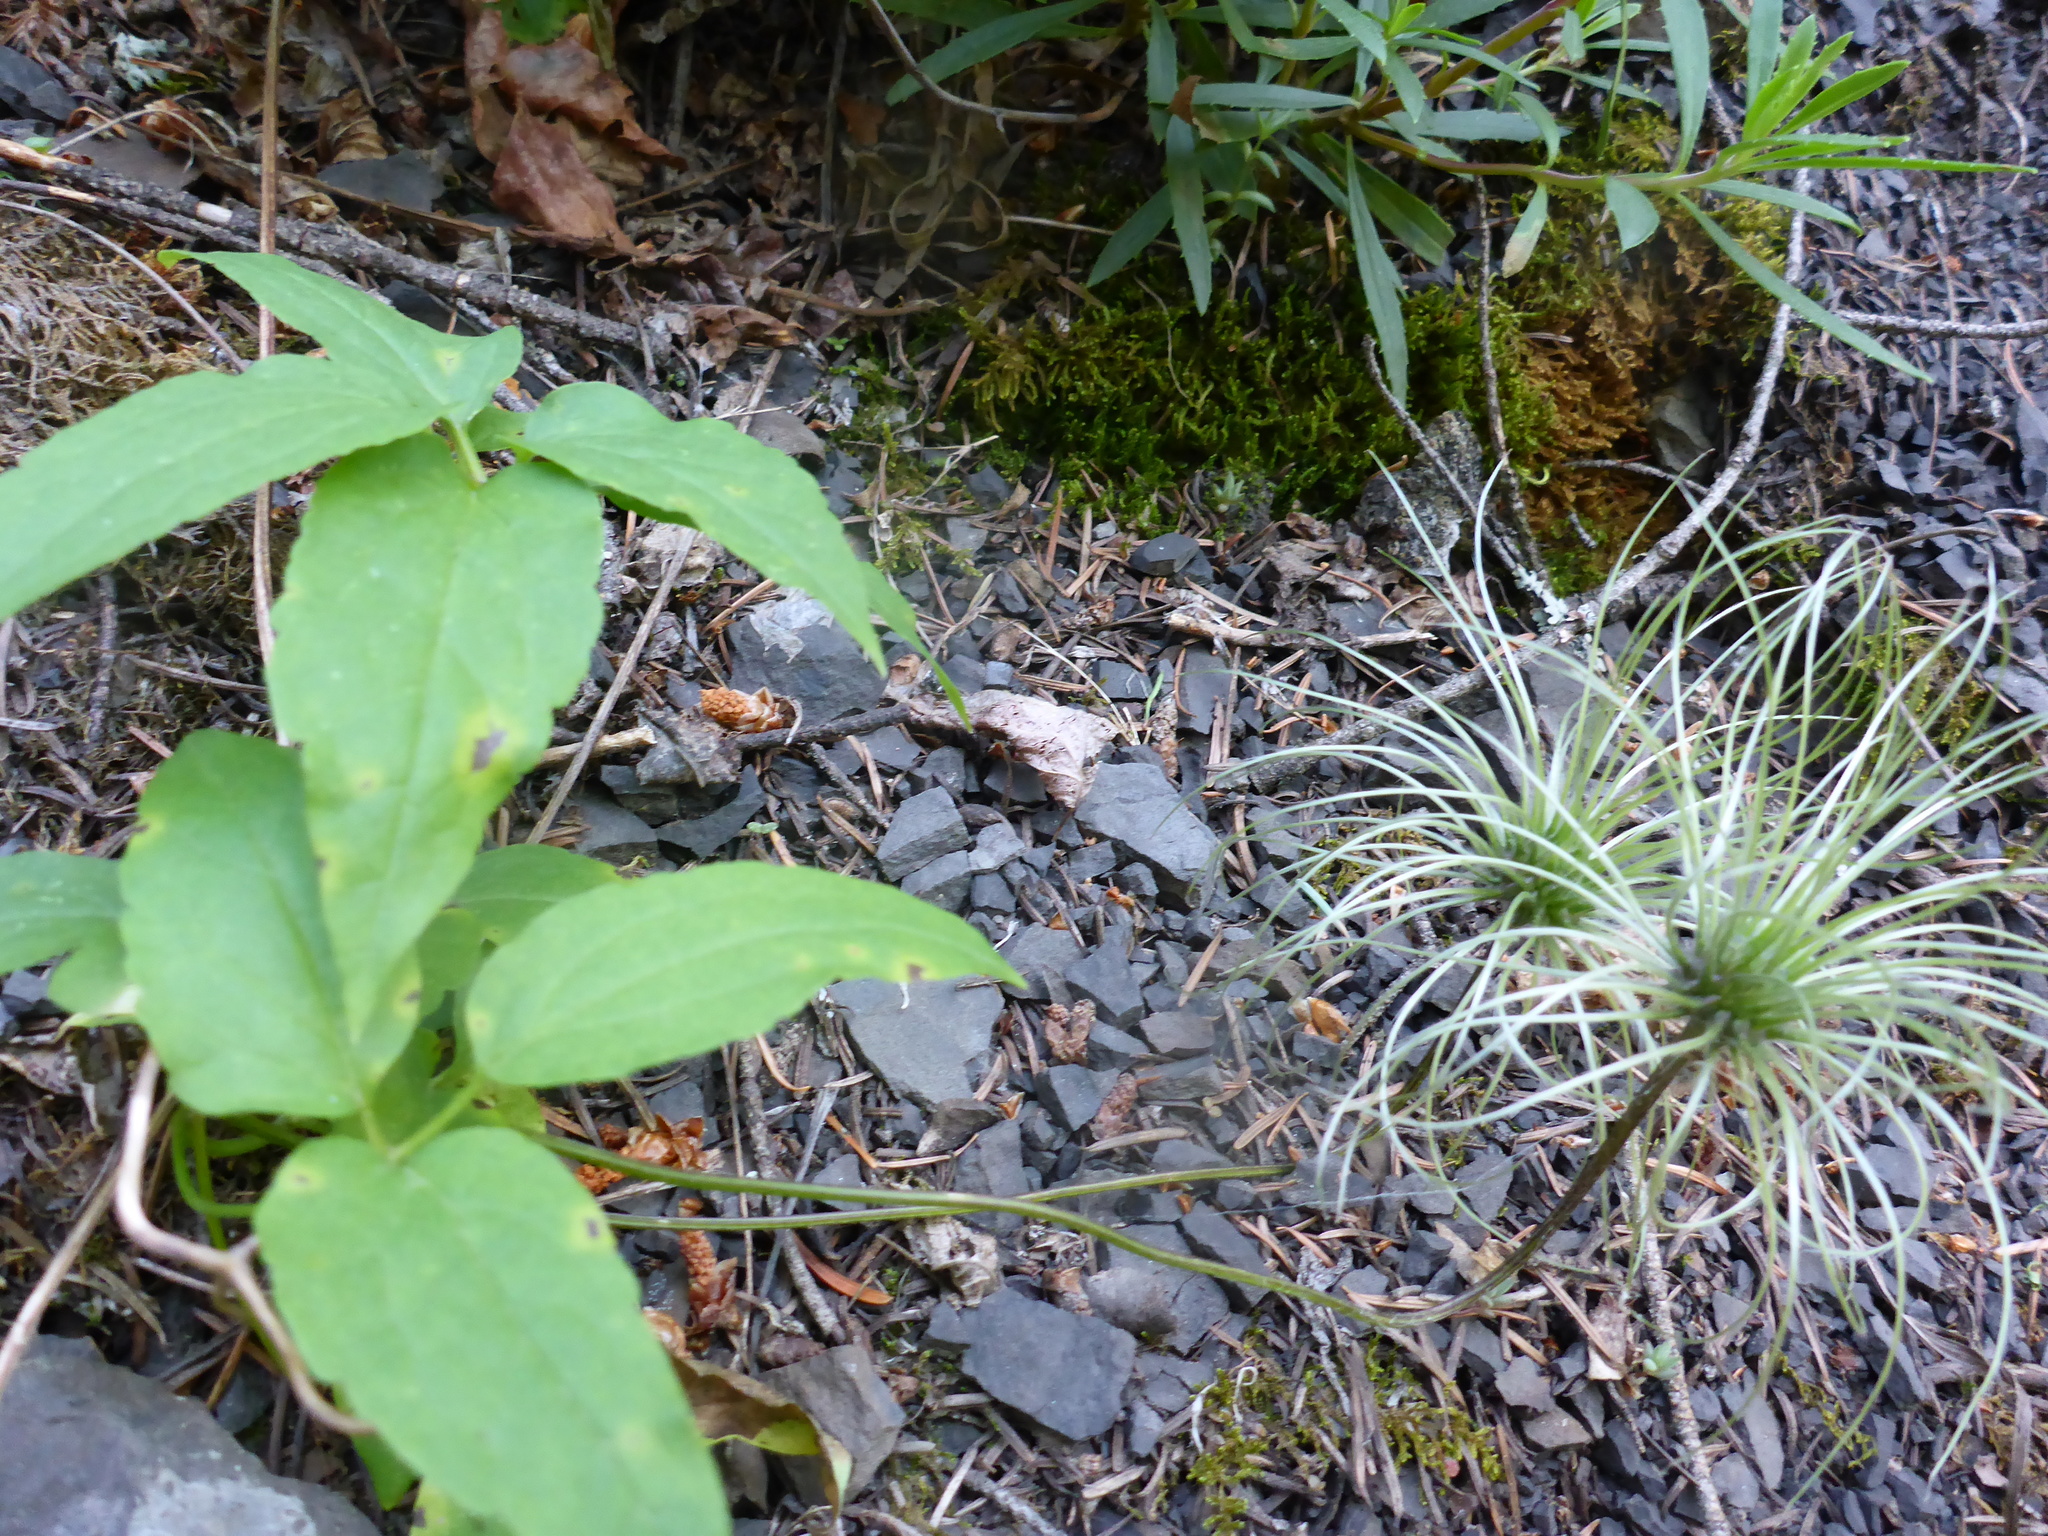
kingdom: Plantae
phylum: Tracheophyta
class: Magnoliopsida
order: Ranunculales
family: Ranunculaceae
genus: Clematis
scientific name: Clematis occidentalis
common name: Purple clematis
